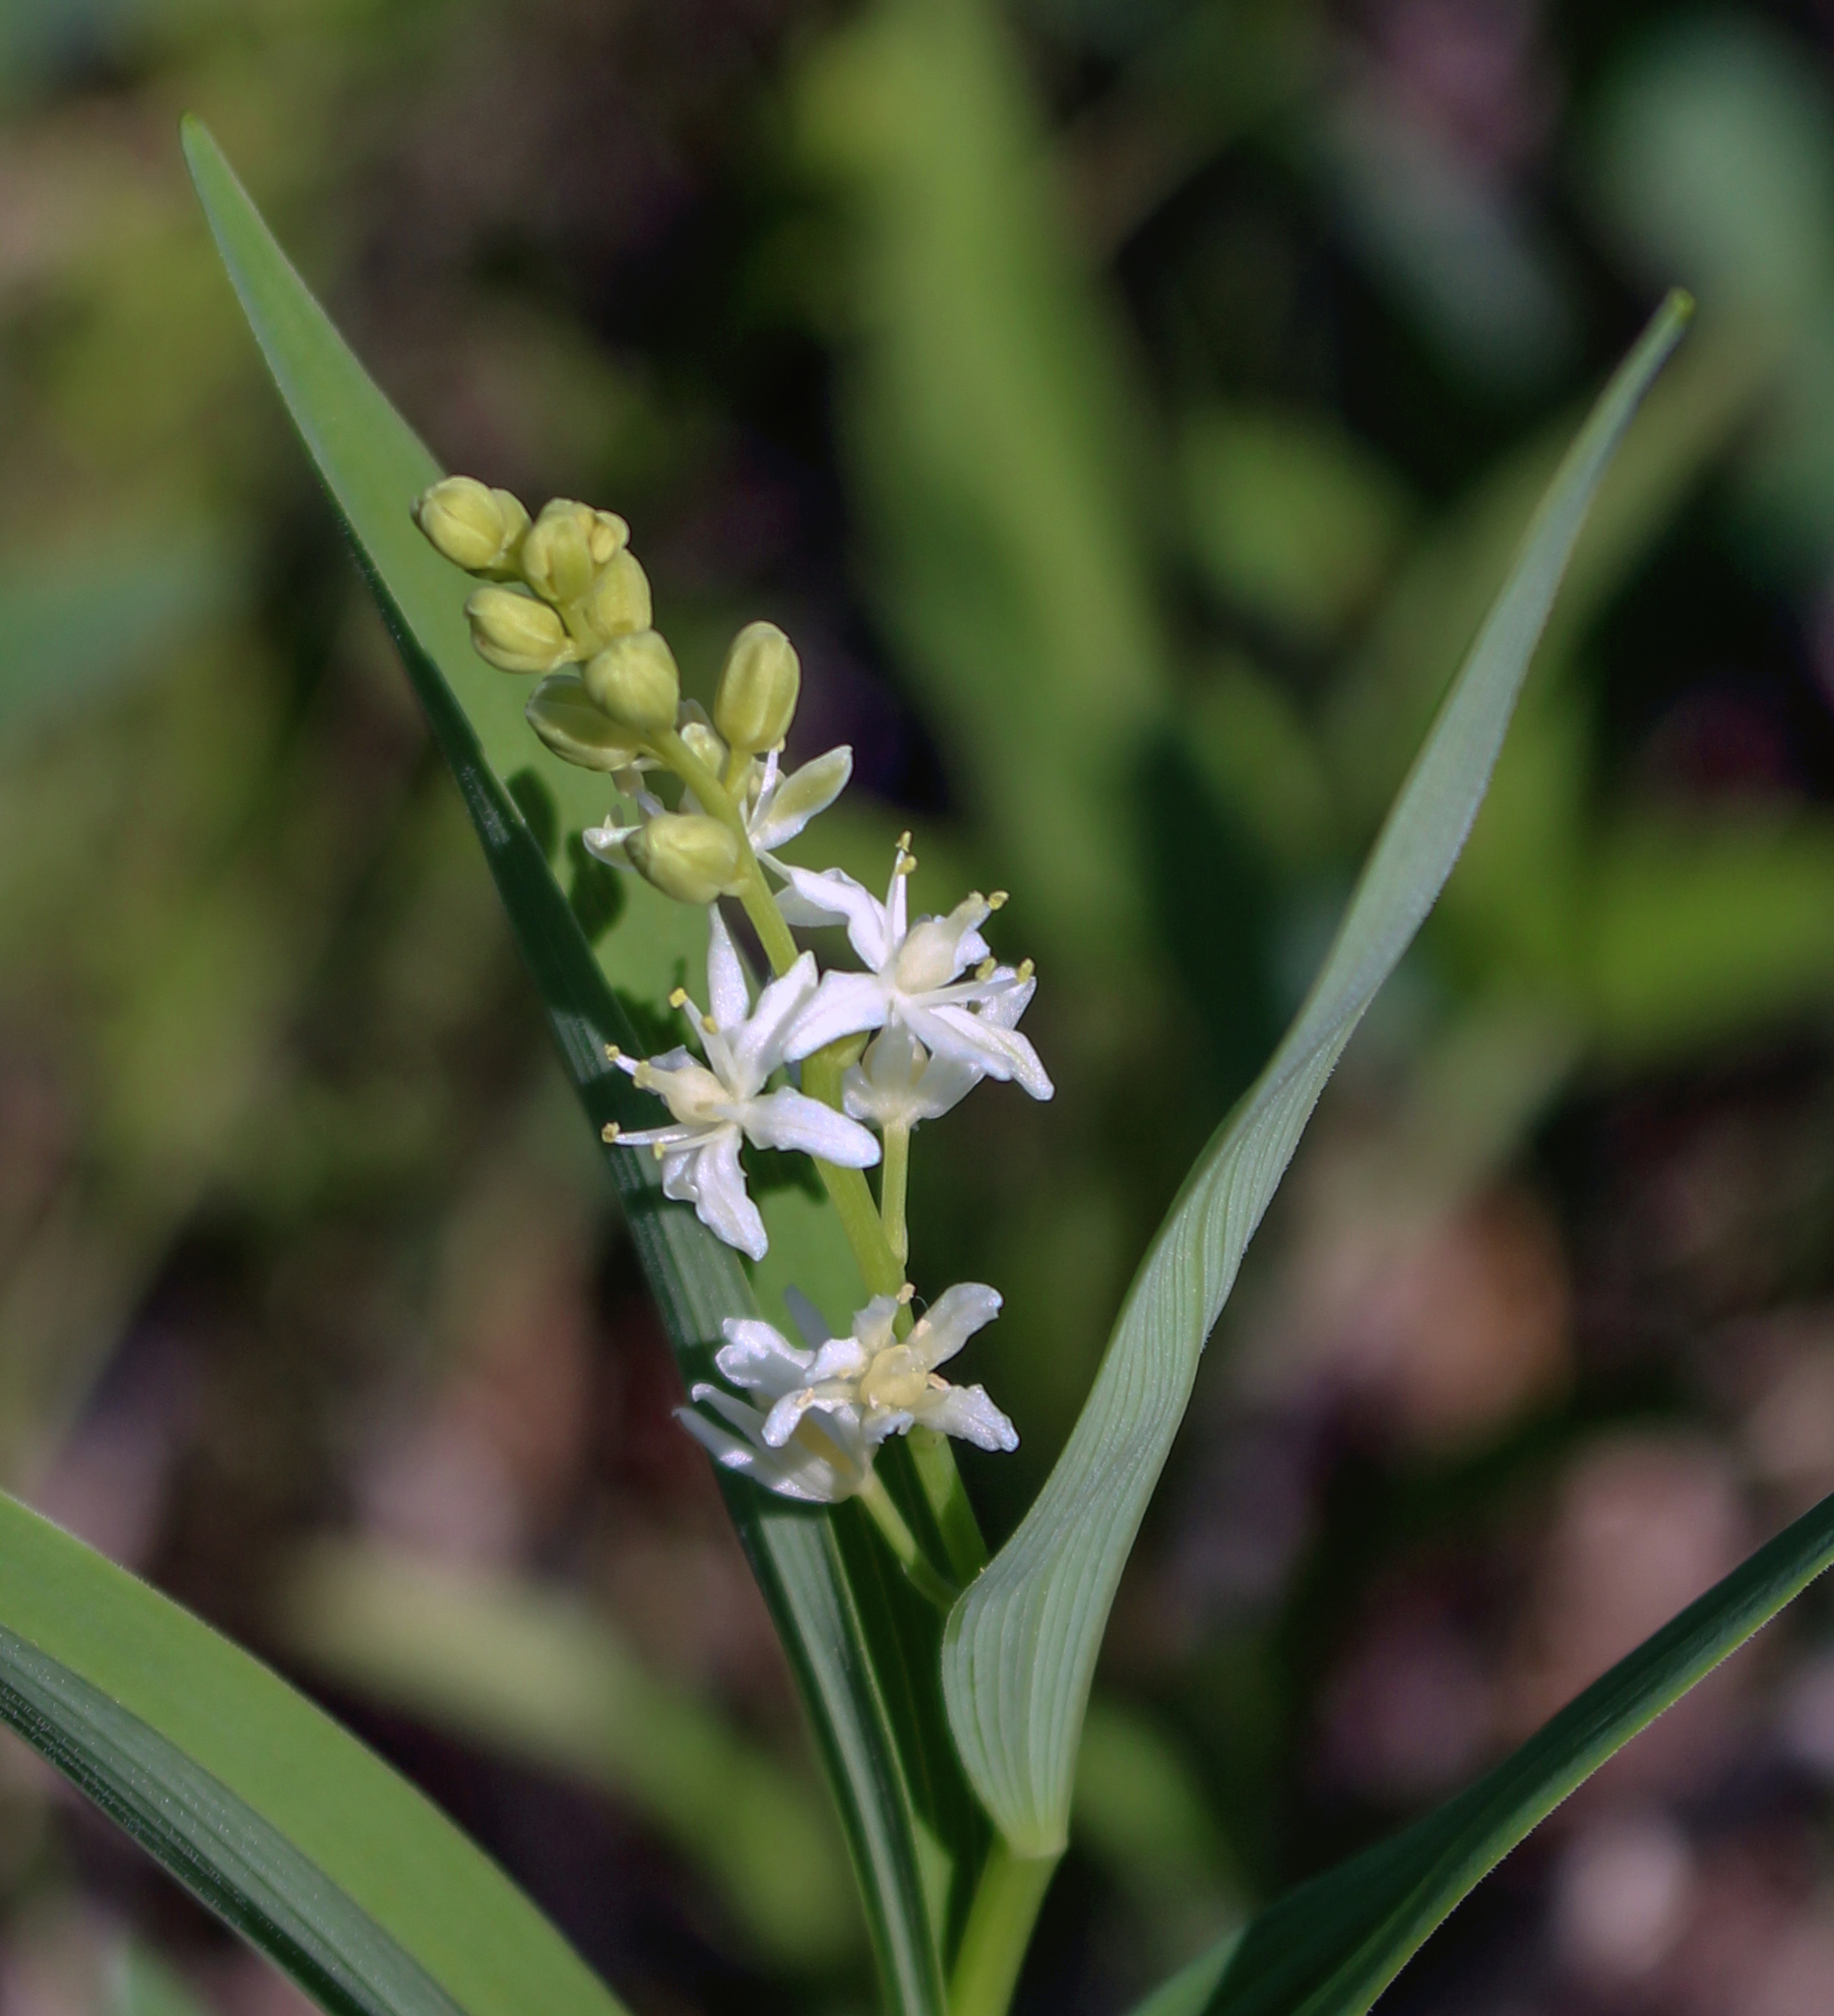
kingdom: Plantae
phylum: Tracheophyta
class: Liliopsida
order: Asparagales
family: Asparagaceae
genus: Maianthemum
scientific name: Maianthemum stellatum
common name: Little false solomon's seal
